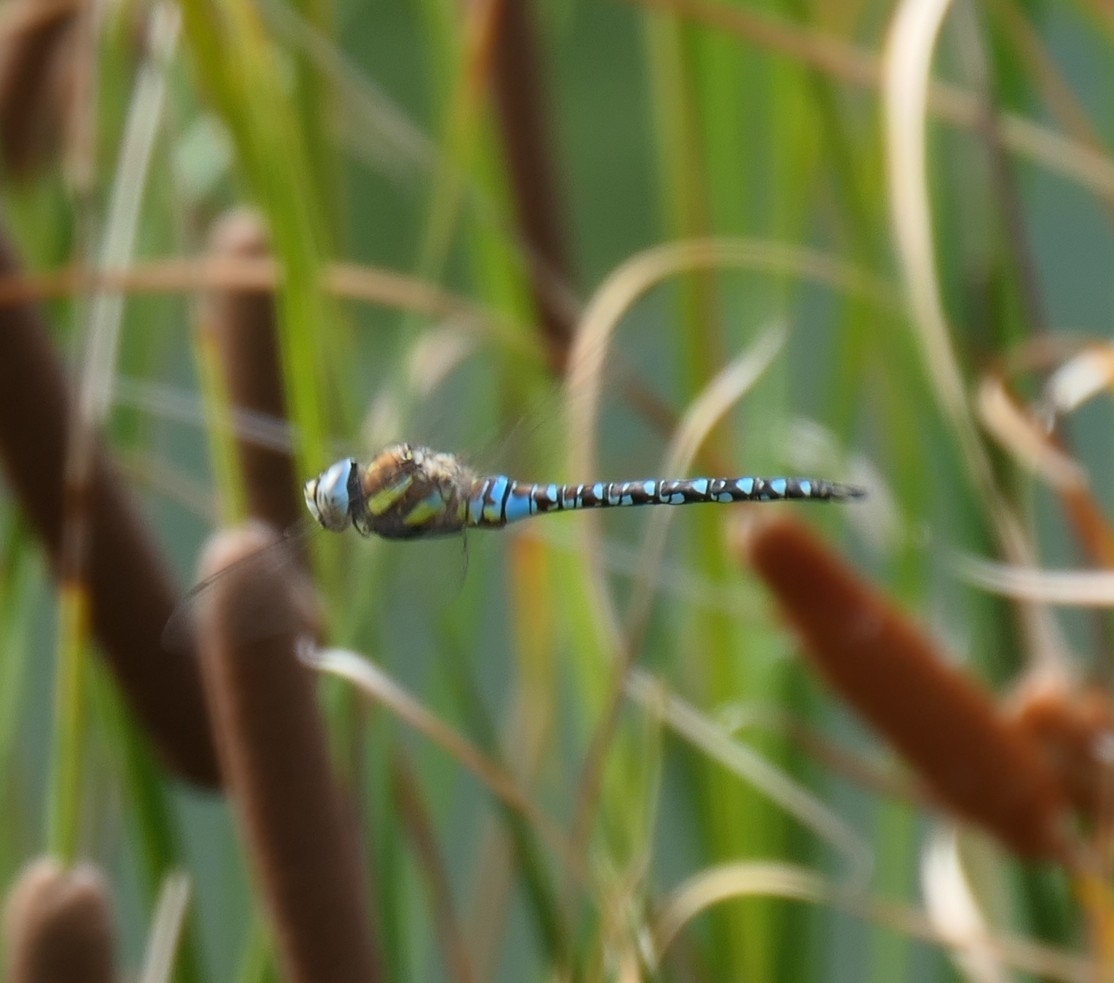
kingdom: Animalia
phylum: Arthropoda
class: Insecta
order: Odonata
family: Aeshnidae
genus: Aeshna
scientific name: Aeshna mixta
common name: Migrant hawker
